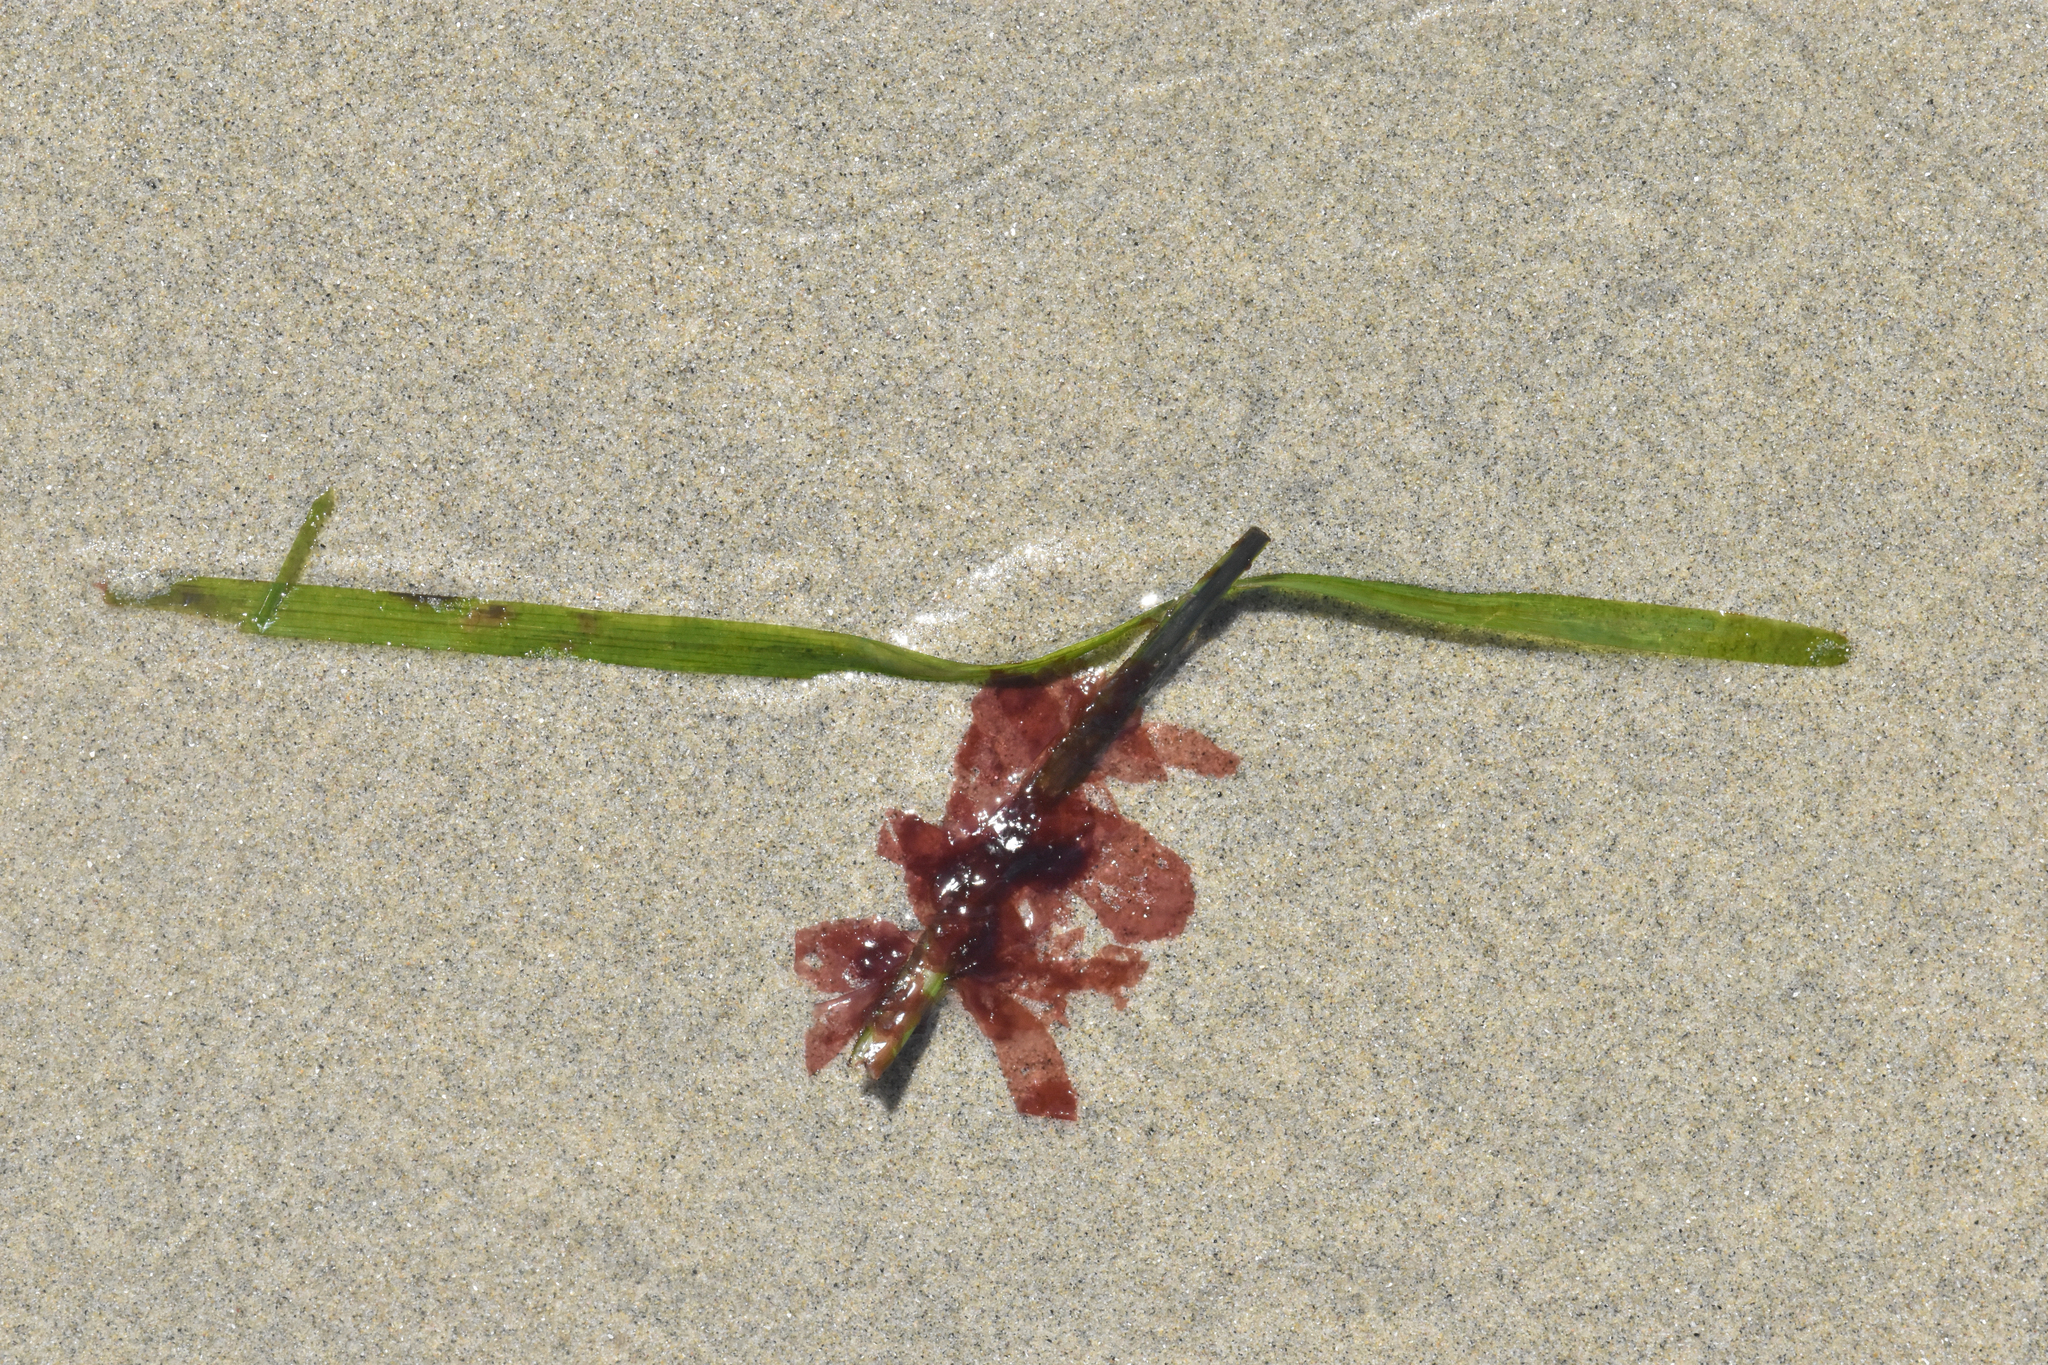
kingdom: Plantae
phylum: Rhodophyta
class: Compsopogonophyceae
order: Erythropeltidales
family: Erythrotrichiaceae
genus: Smithora
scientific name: Smithora naiadum
